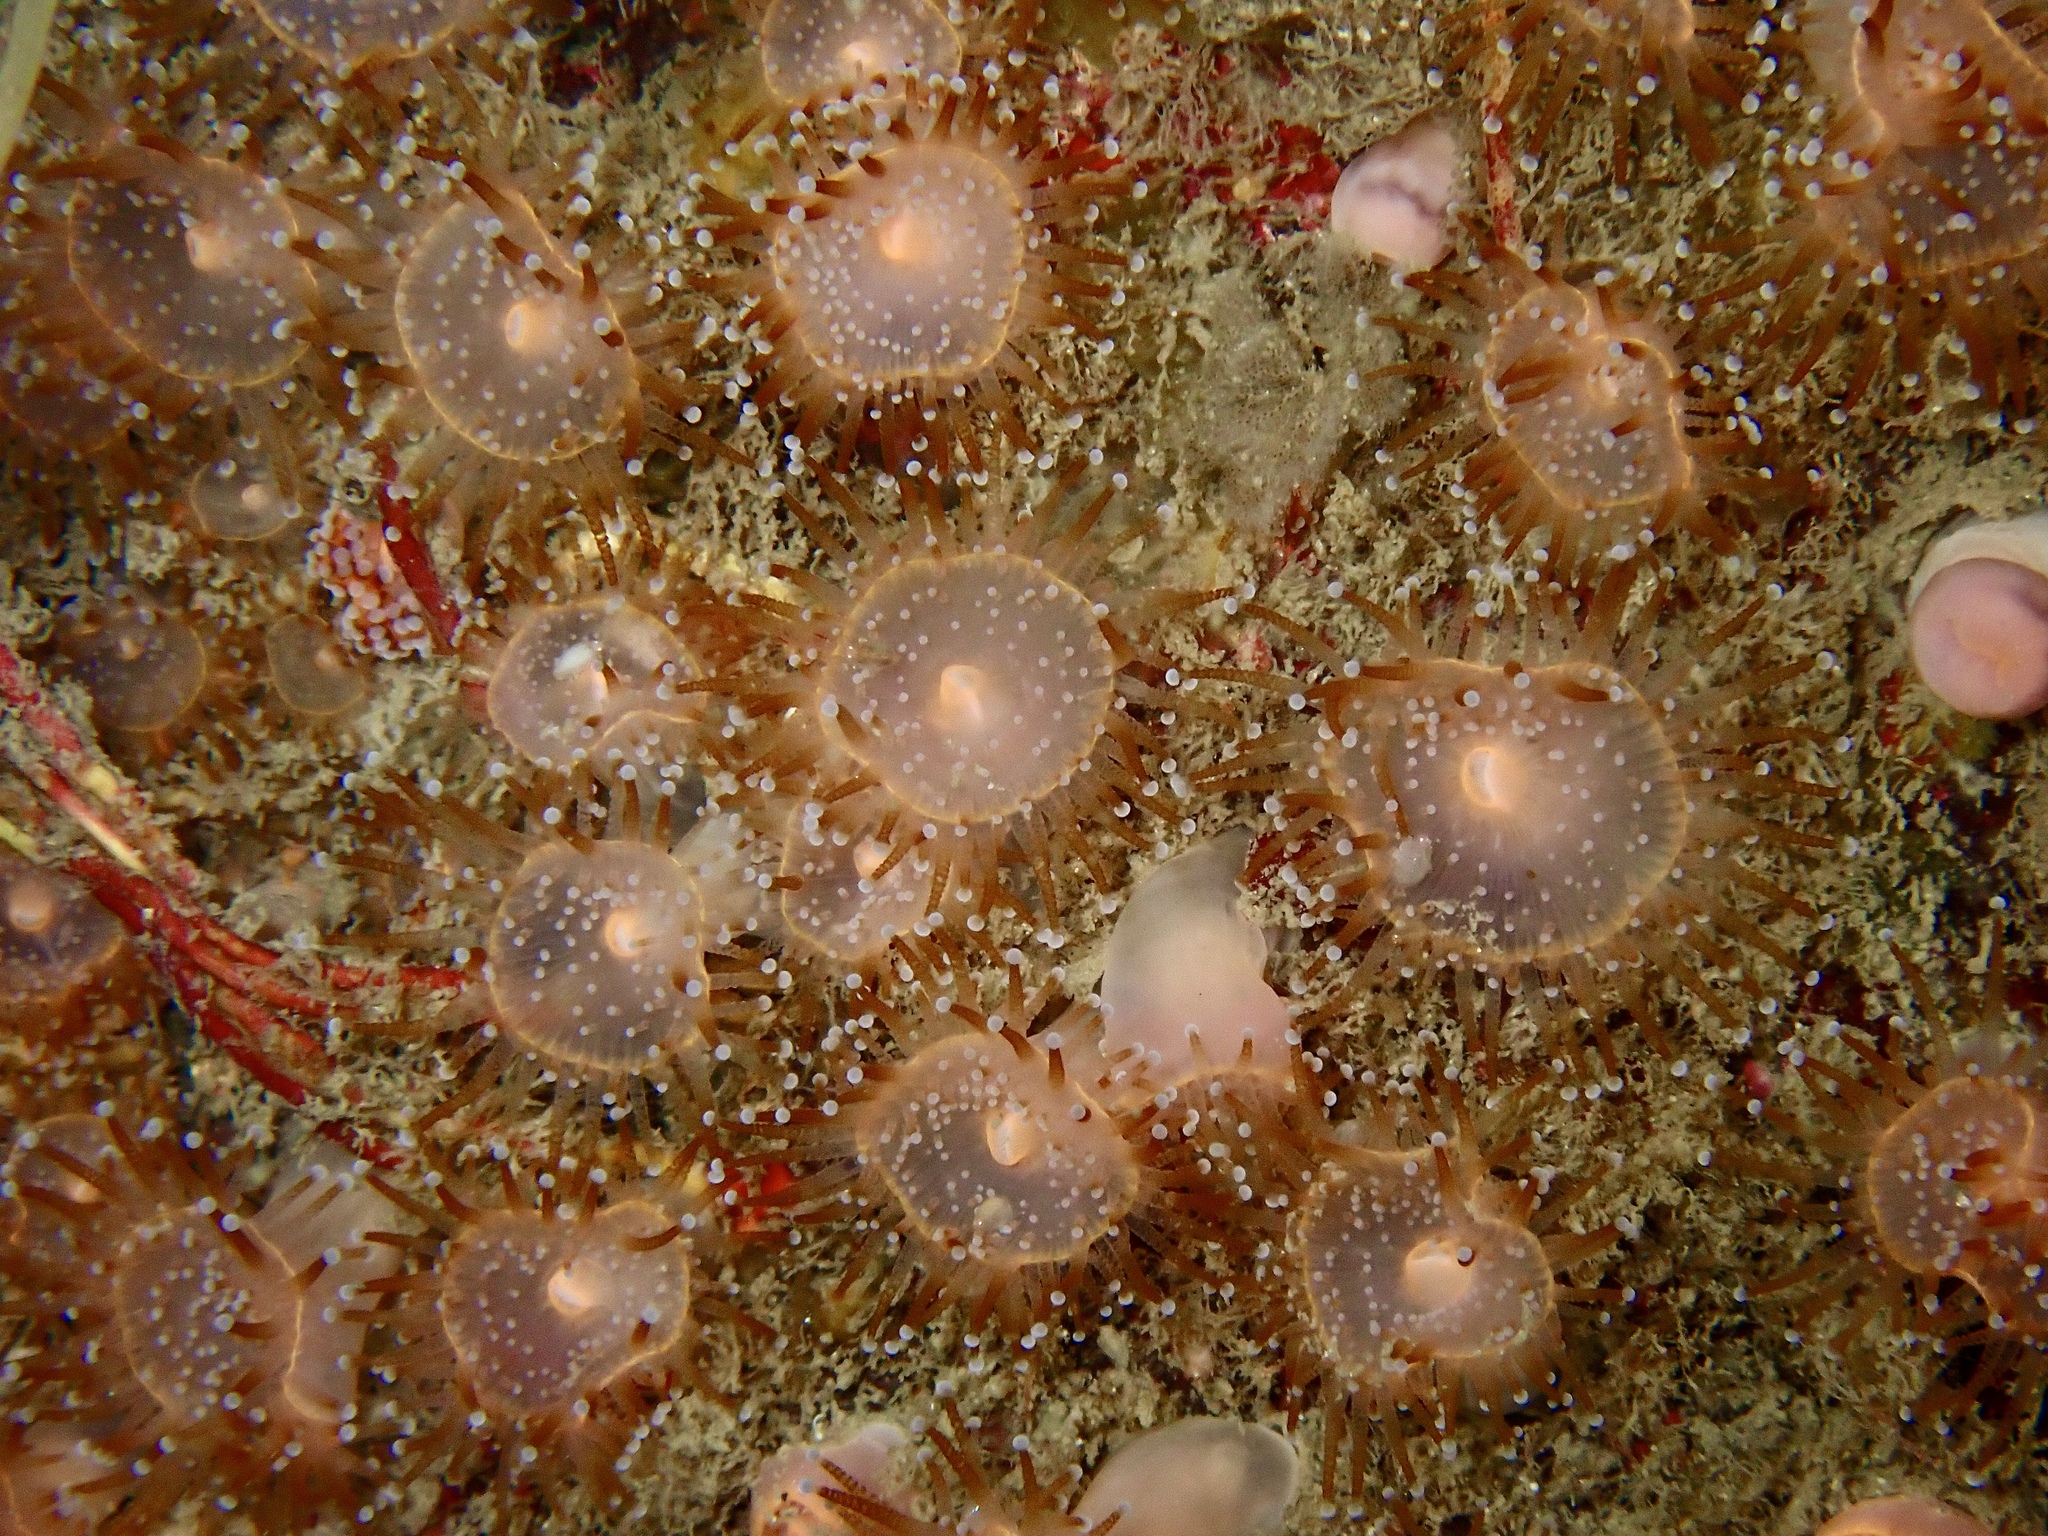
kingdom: Animalia
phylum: Cnidaria
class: Anthozoa
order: Corallimorpharia
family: Corallimorphidae
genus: Corynactis
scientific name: Corynactis viridis
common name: Jewel anemone
